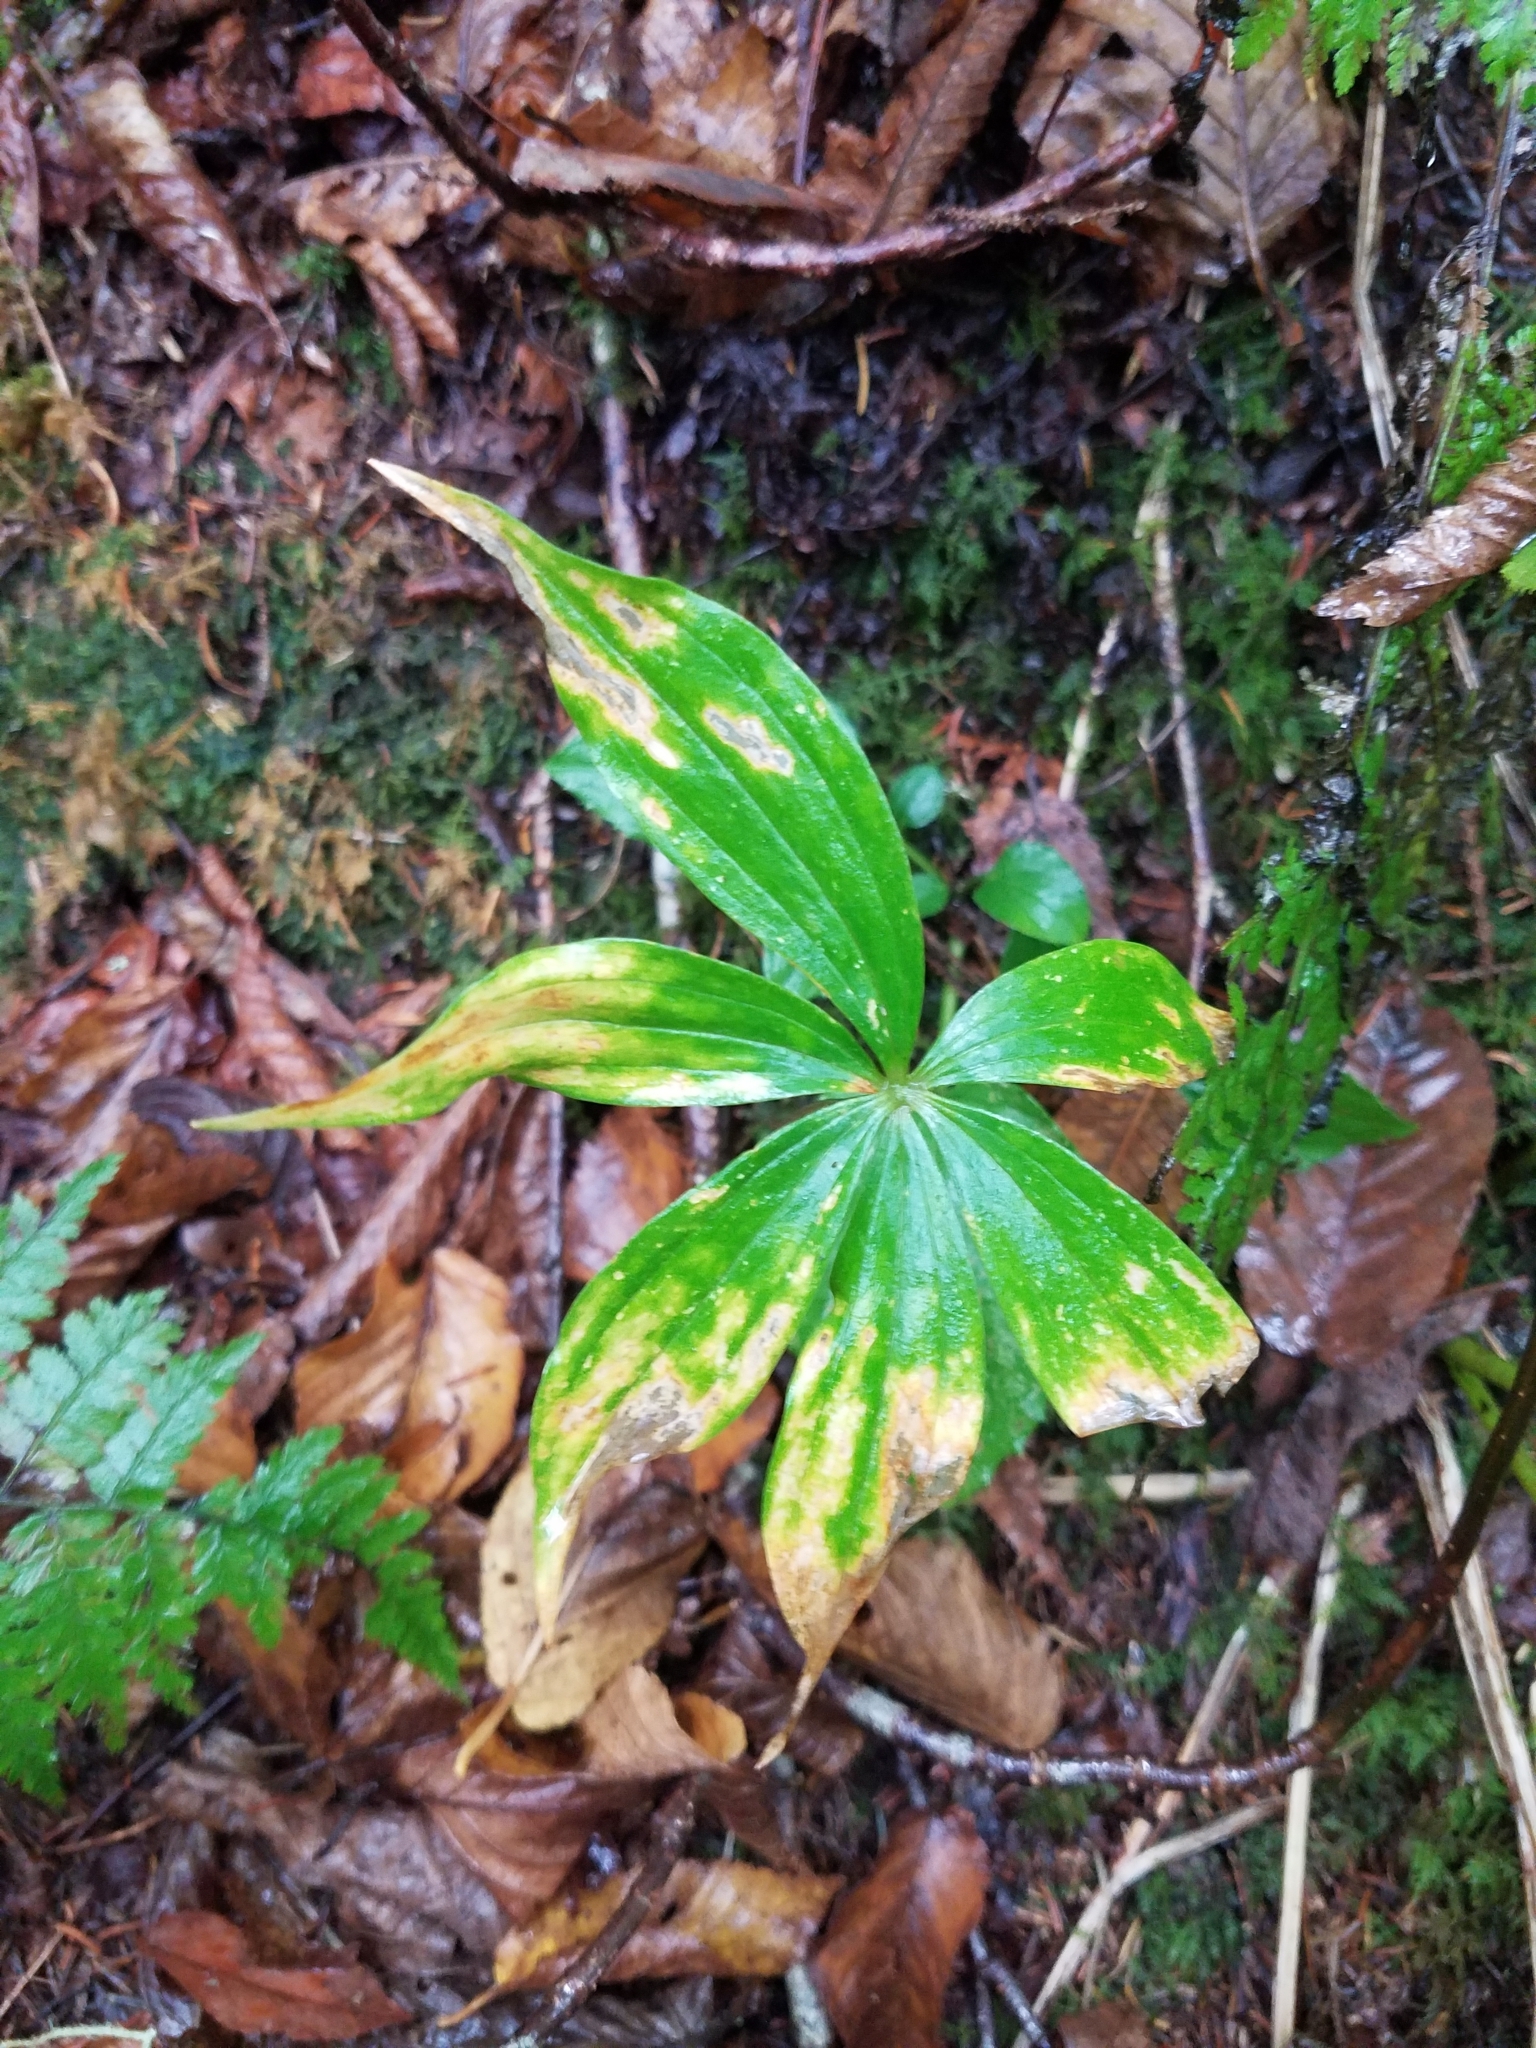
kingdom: Plantae
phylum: Tracheophyta
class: Liliopsida
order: Liliales
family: Liliaceae
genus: Medeola
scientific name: Medeola virginiana
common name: Indian cucumber-root
